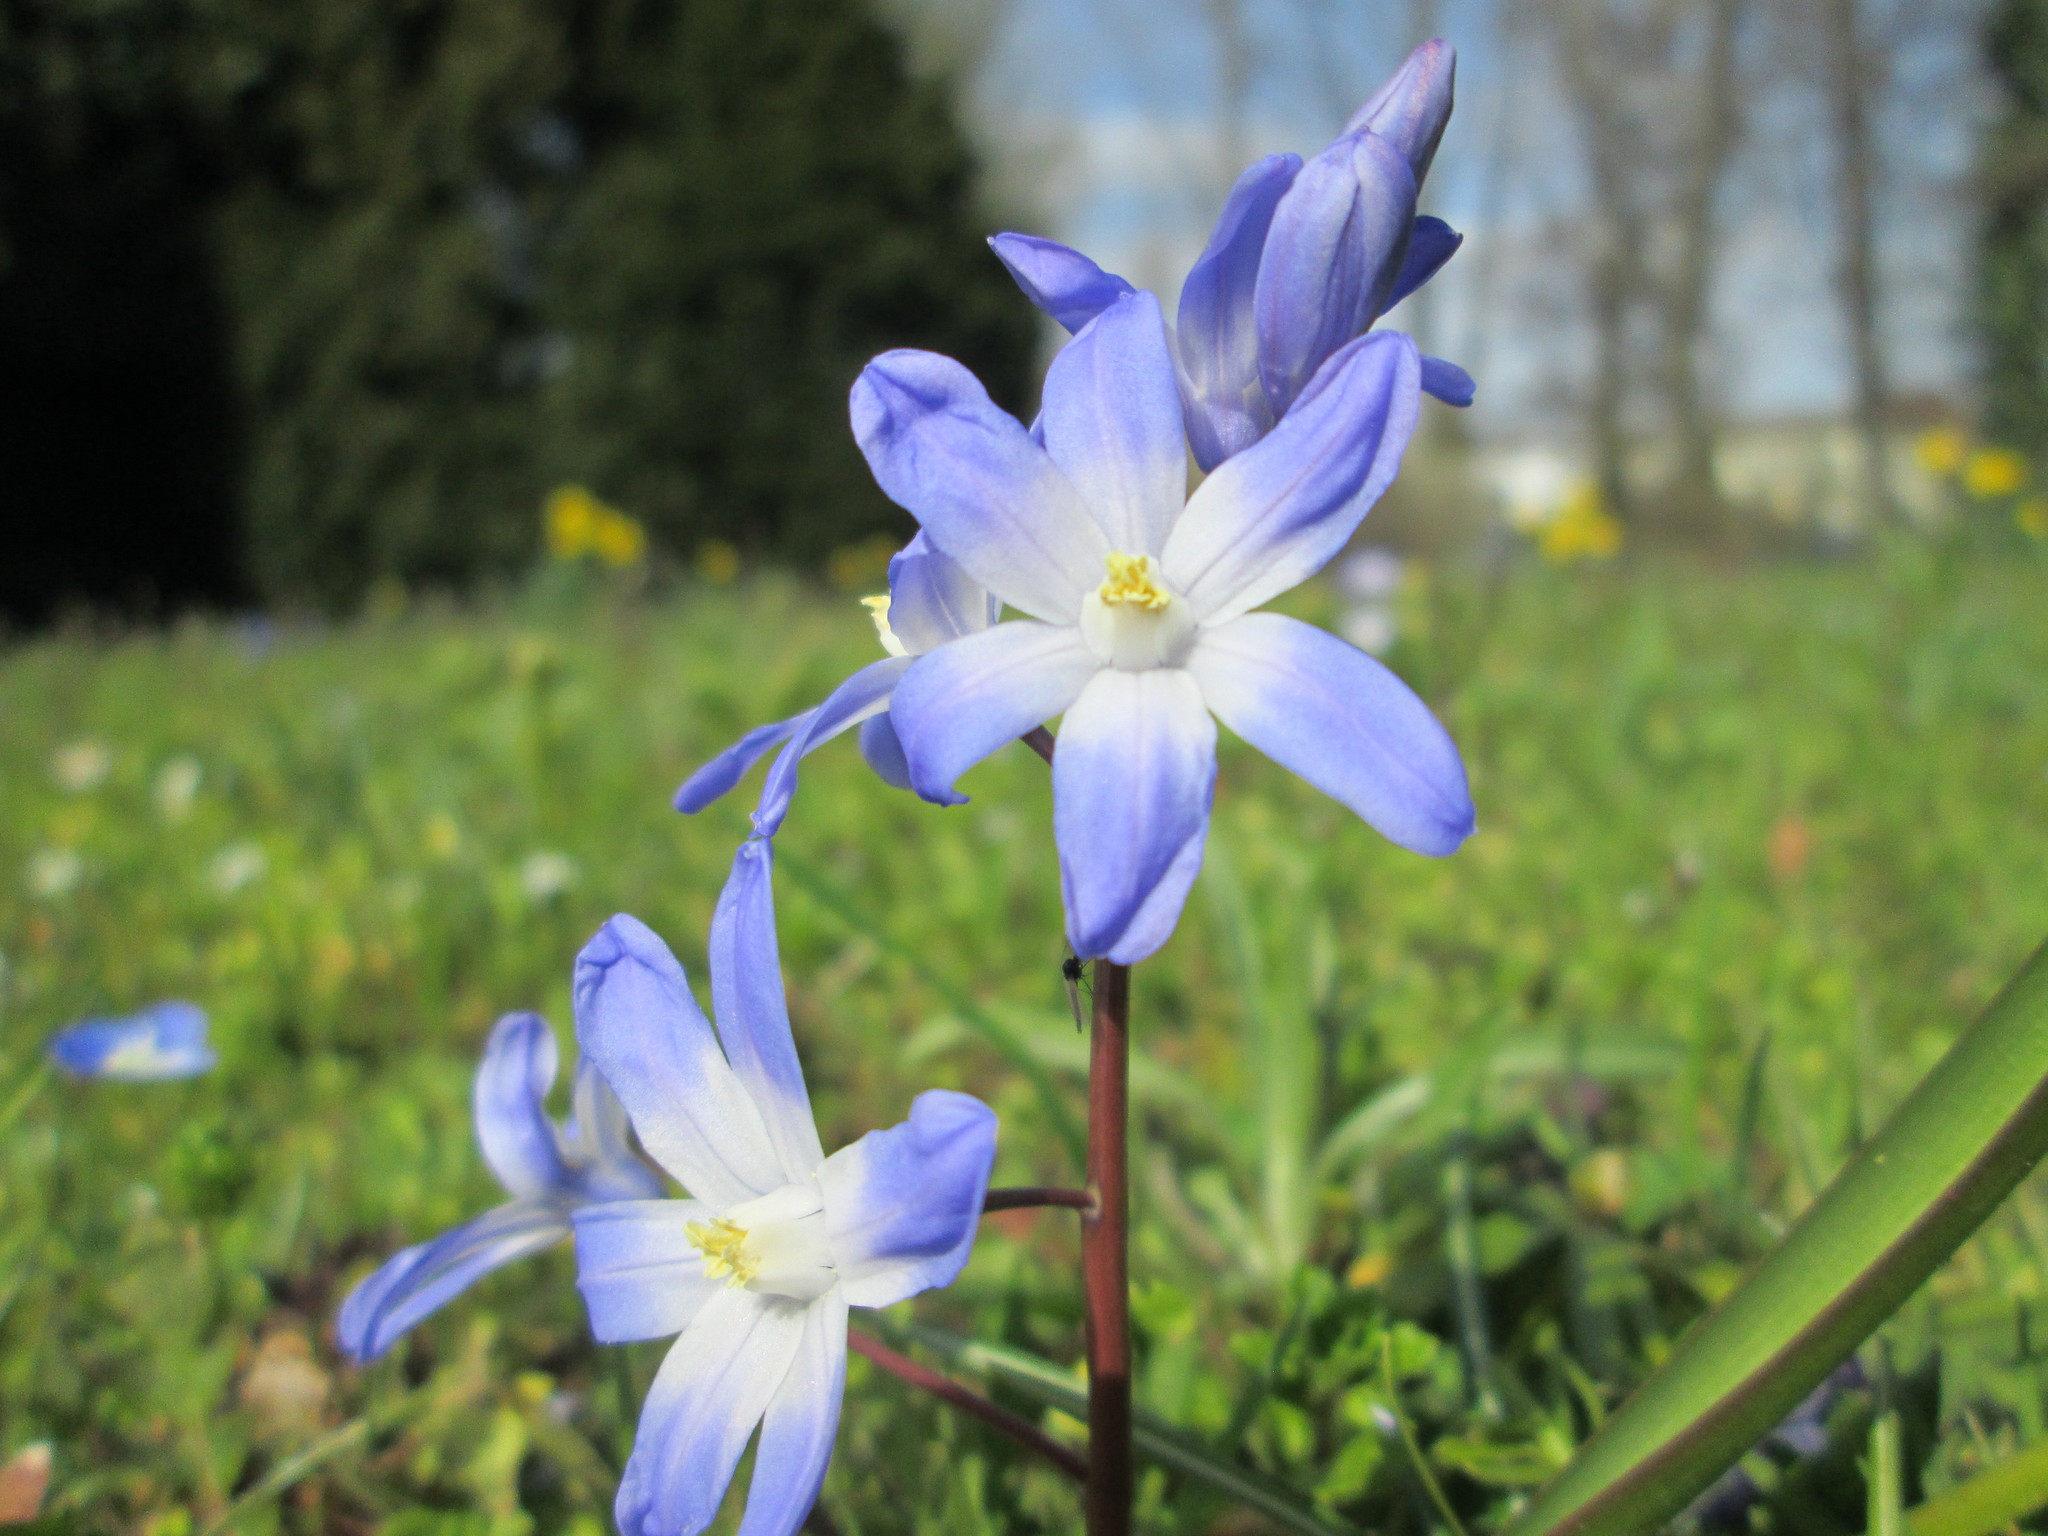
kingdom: Plantae
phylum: Tracheophyta
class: Liliopsida
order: Asparagales
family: Asparagaceae
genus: Scilla
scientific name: Scilla
